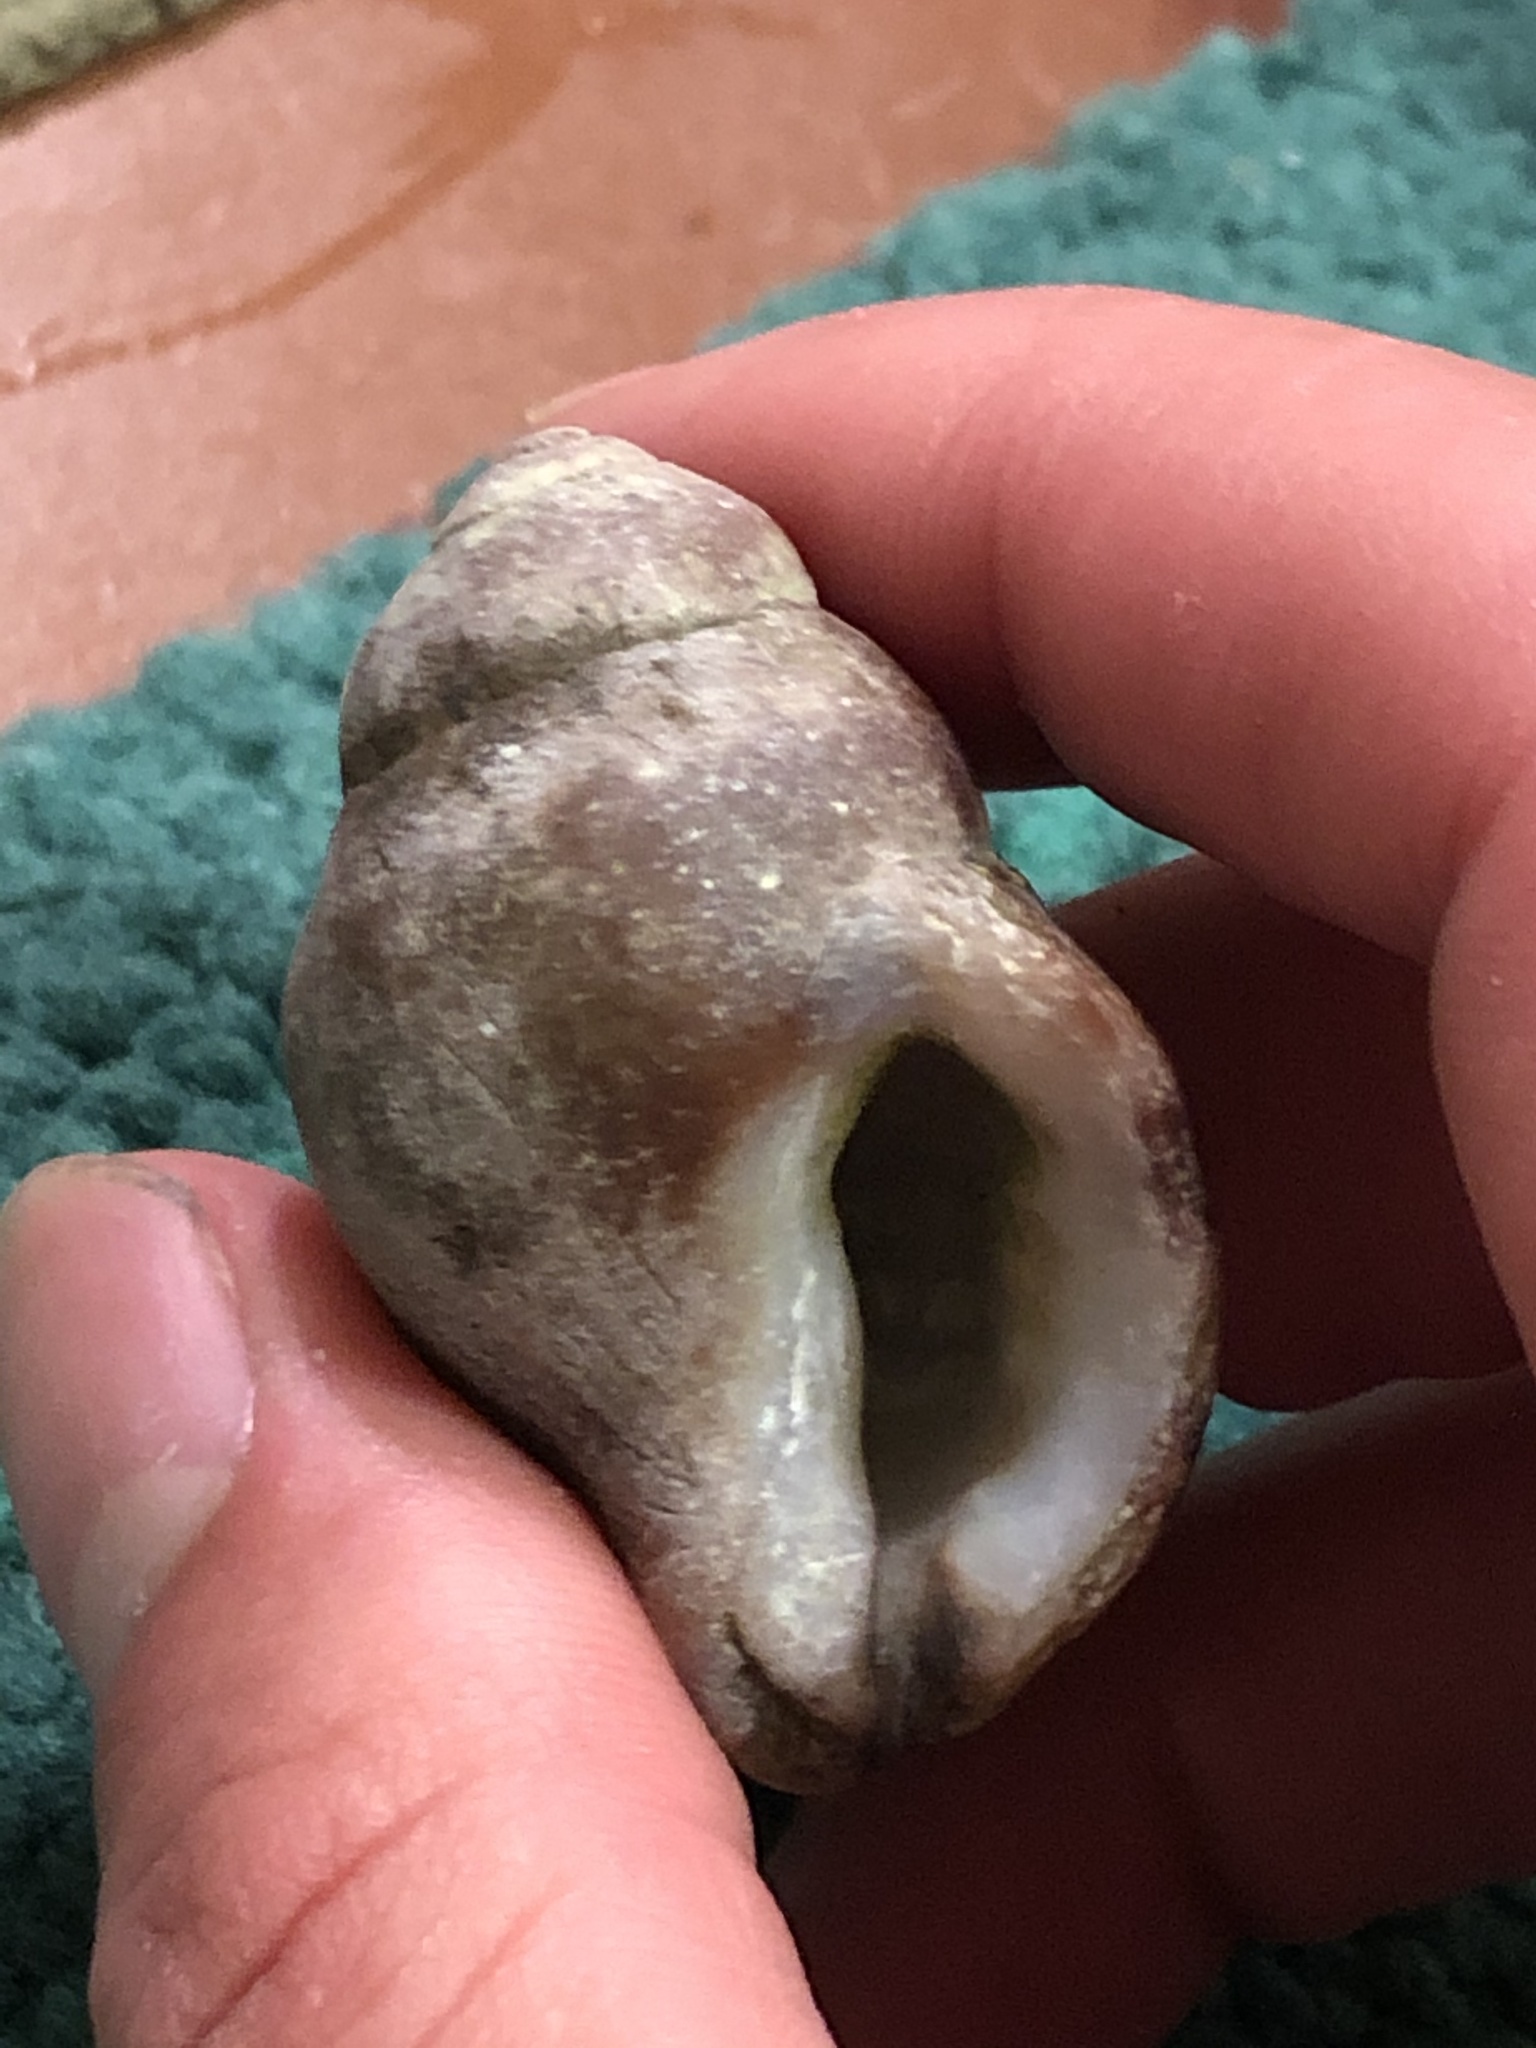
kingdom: Animalia
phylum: Mollusca
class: Gastropoda
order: Neogastropoda
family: Muricidae
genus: Nucella
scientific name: Nucella lamellosa
